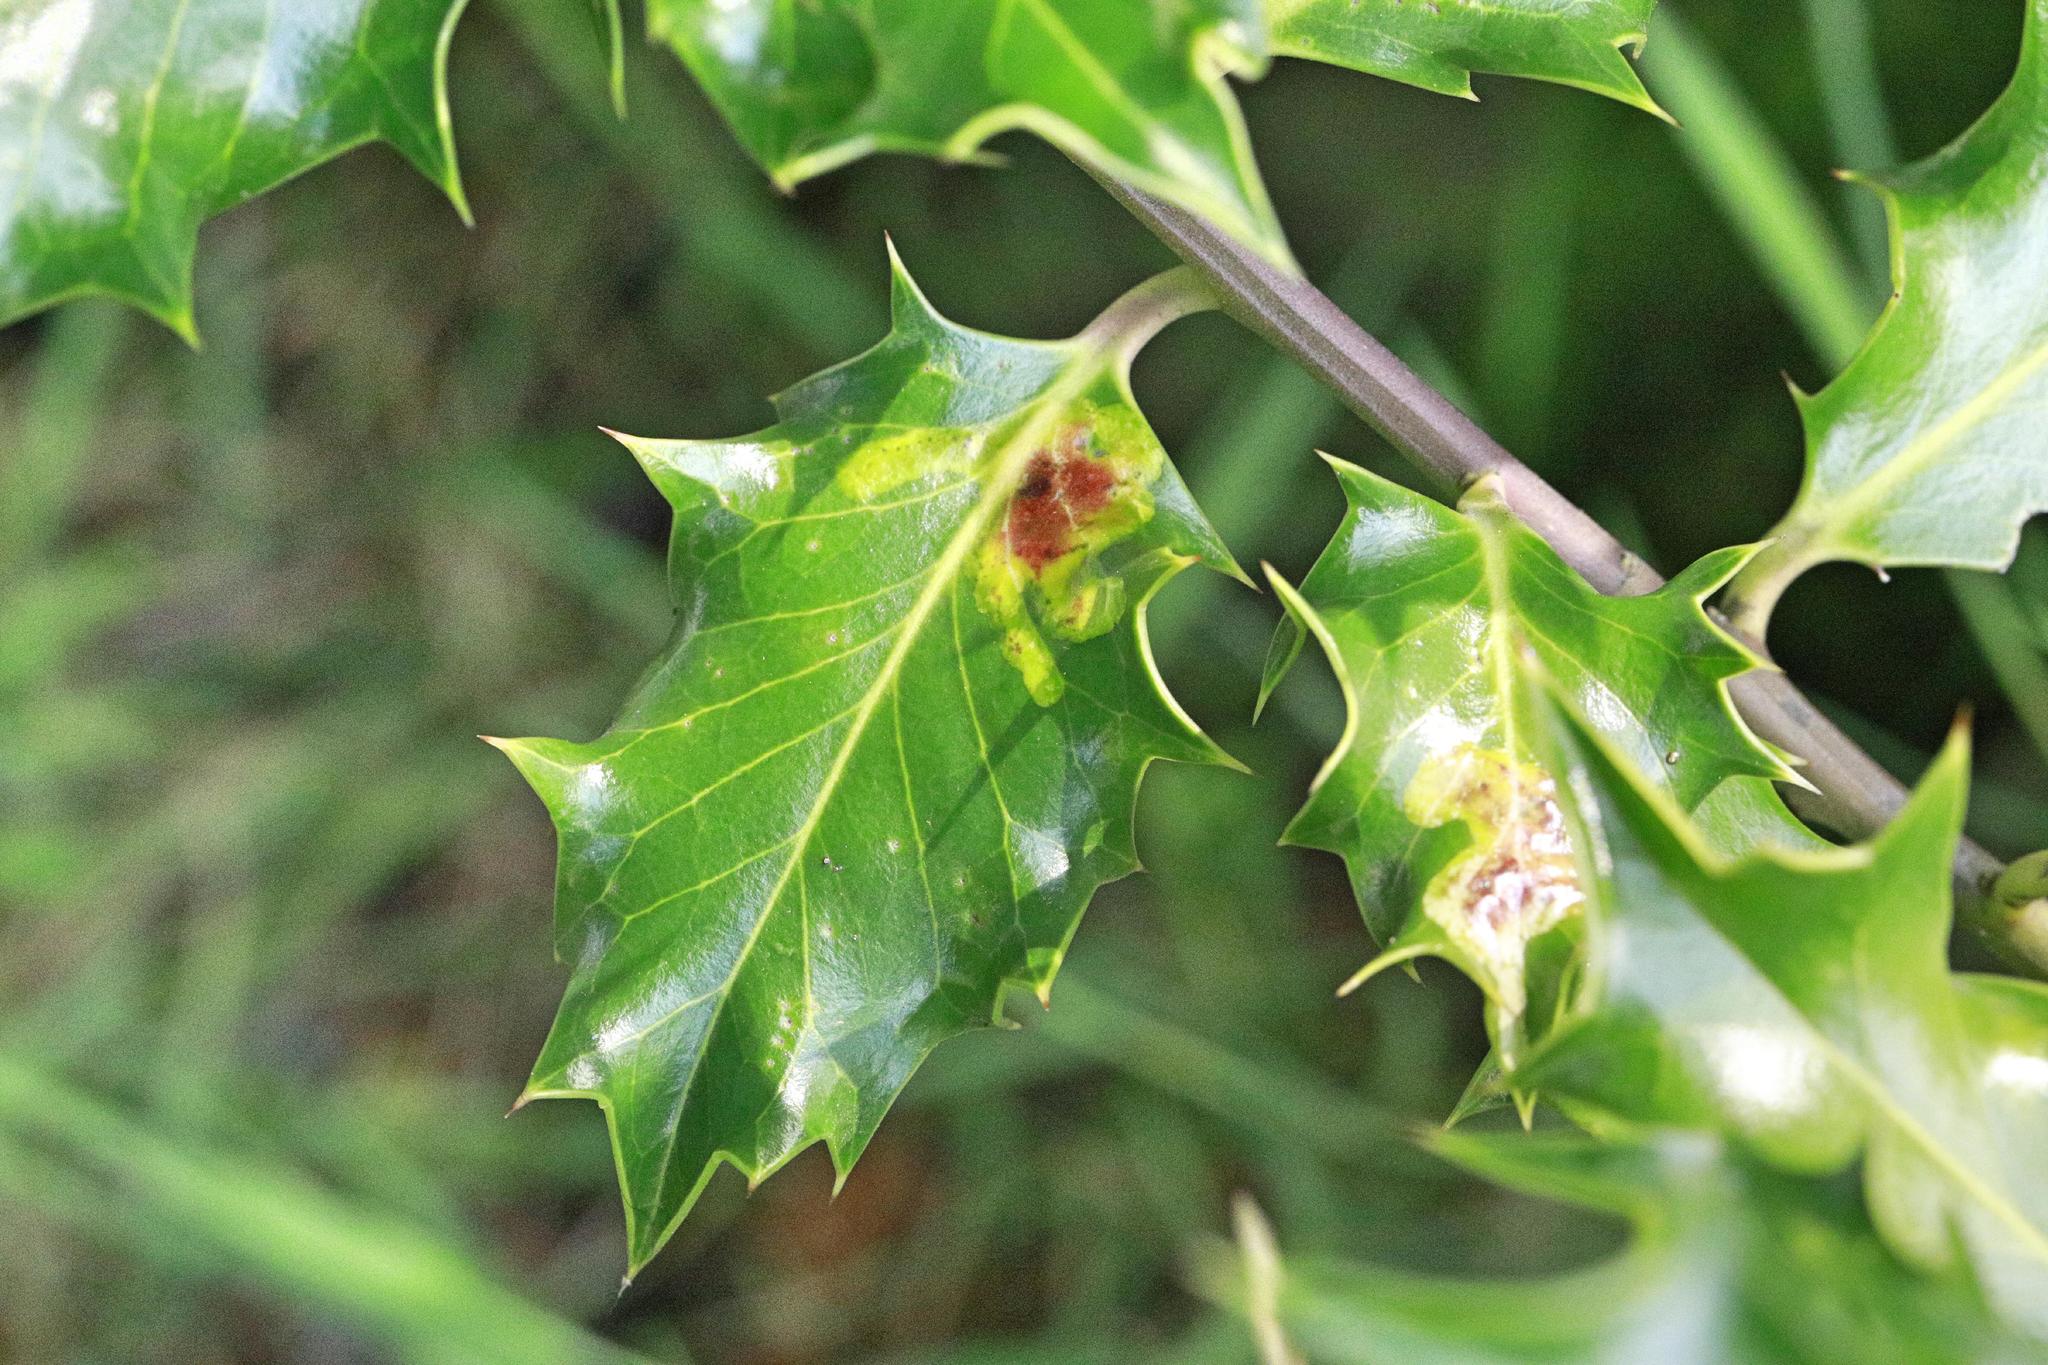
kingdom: Animalia
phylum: Arthropoda
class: Insecta
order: Diptera
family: Agromyzidae
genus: Phytomyza
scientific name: Phytomyza ilicis
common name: Holly leafminer
